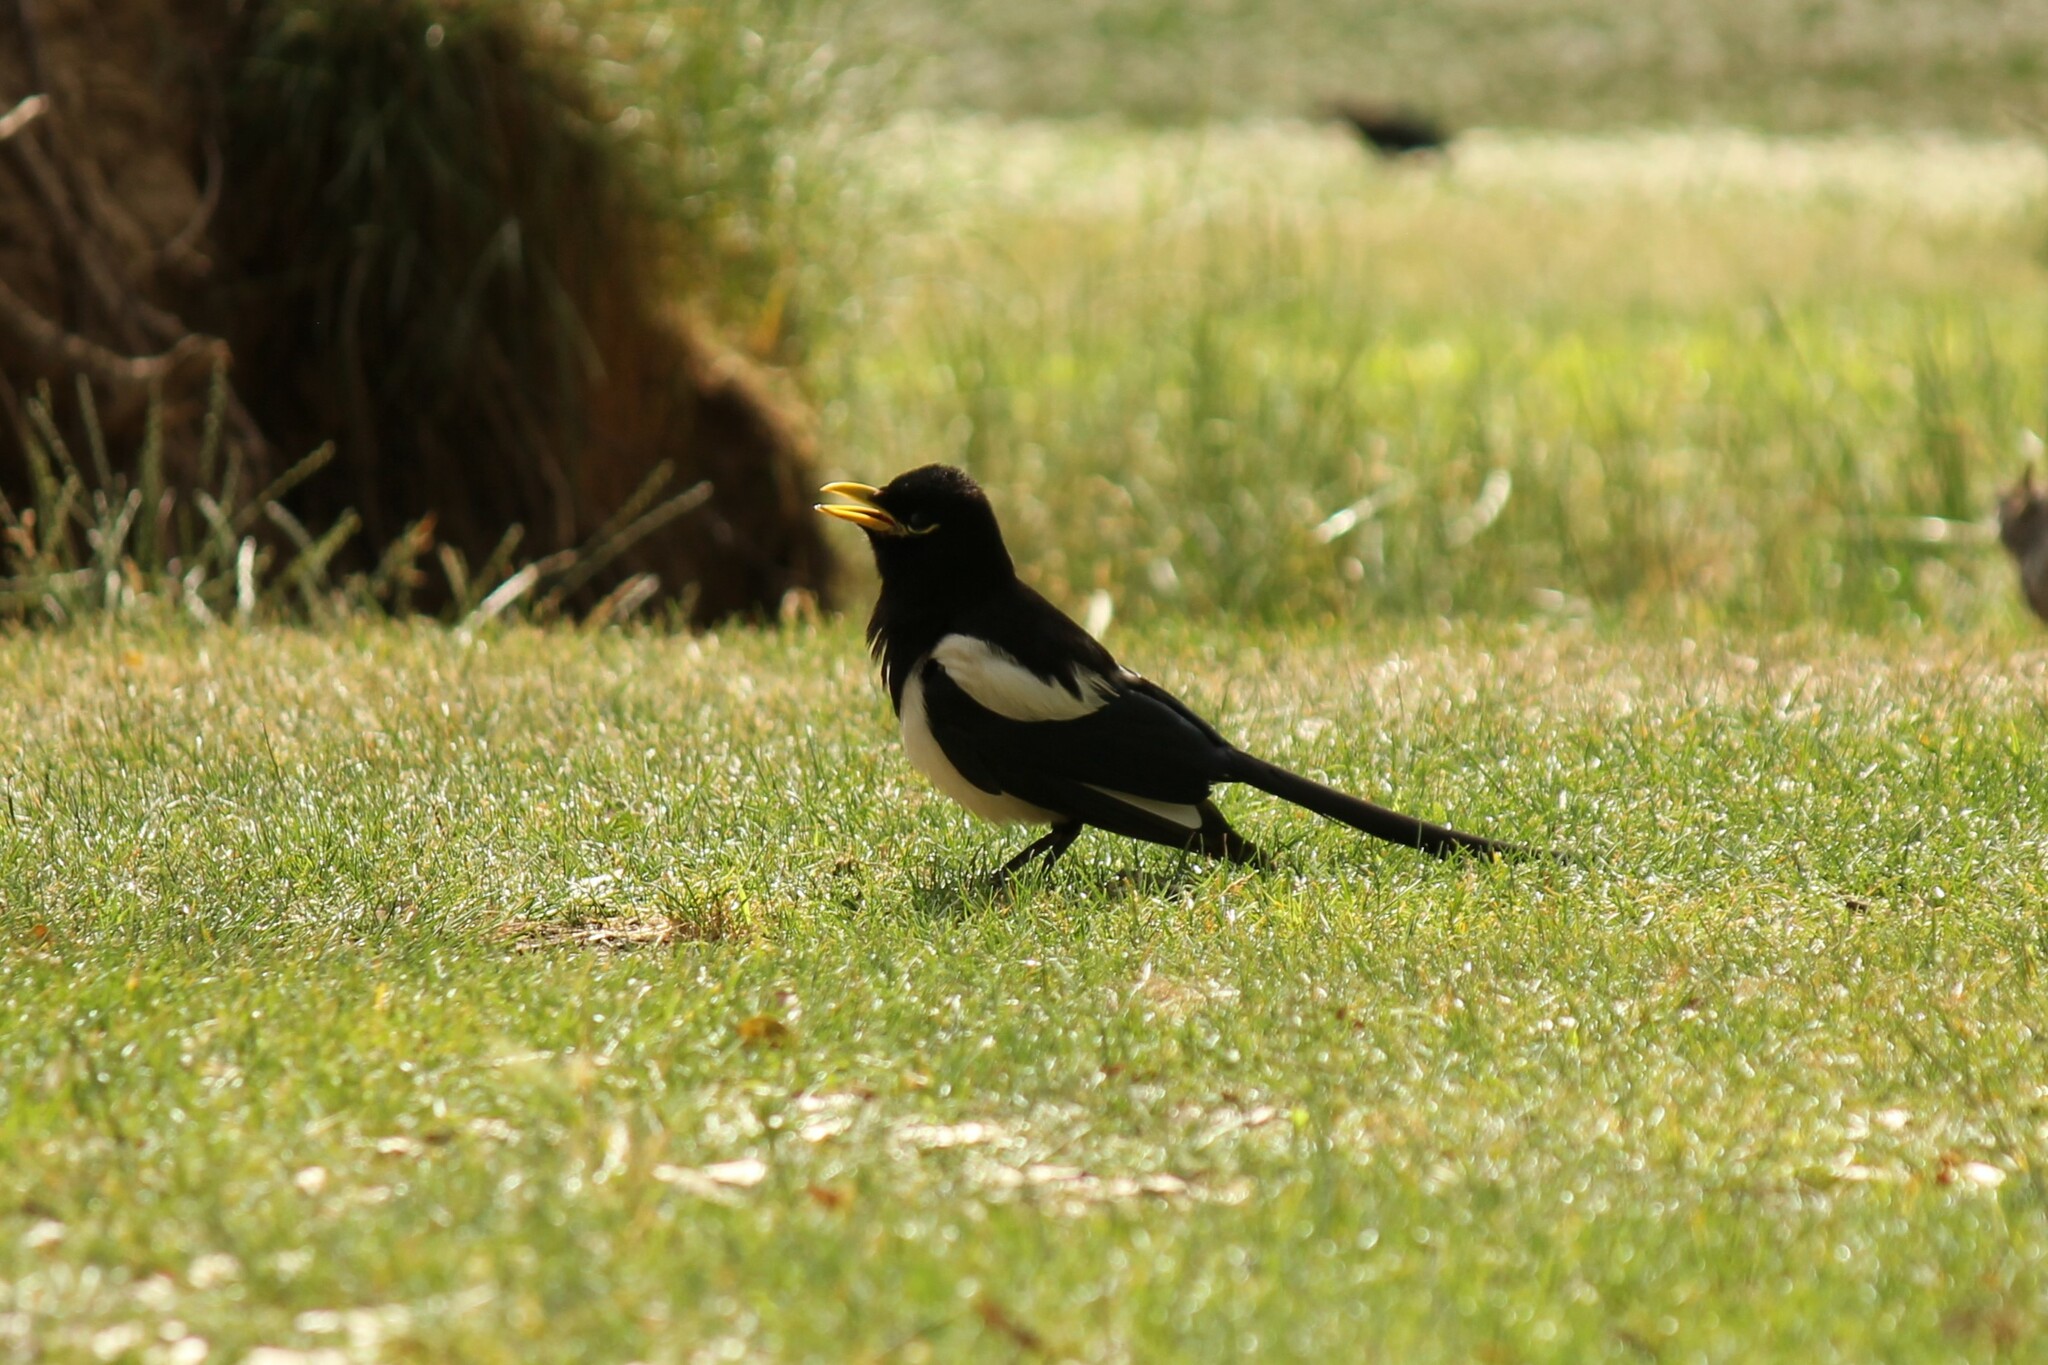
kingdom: Animalia
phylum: Chordata
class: Aves
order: Passeriformes
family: Corvidae
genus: Pica
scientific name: Pica nuttalli
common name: Yellow-billed magpie
